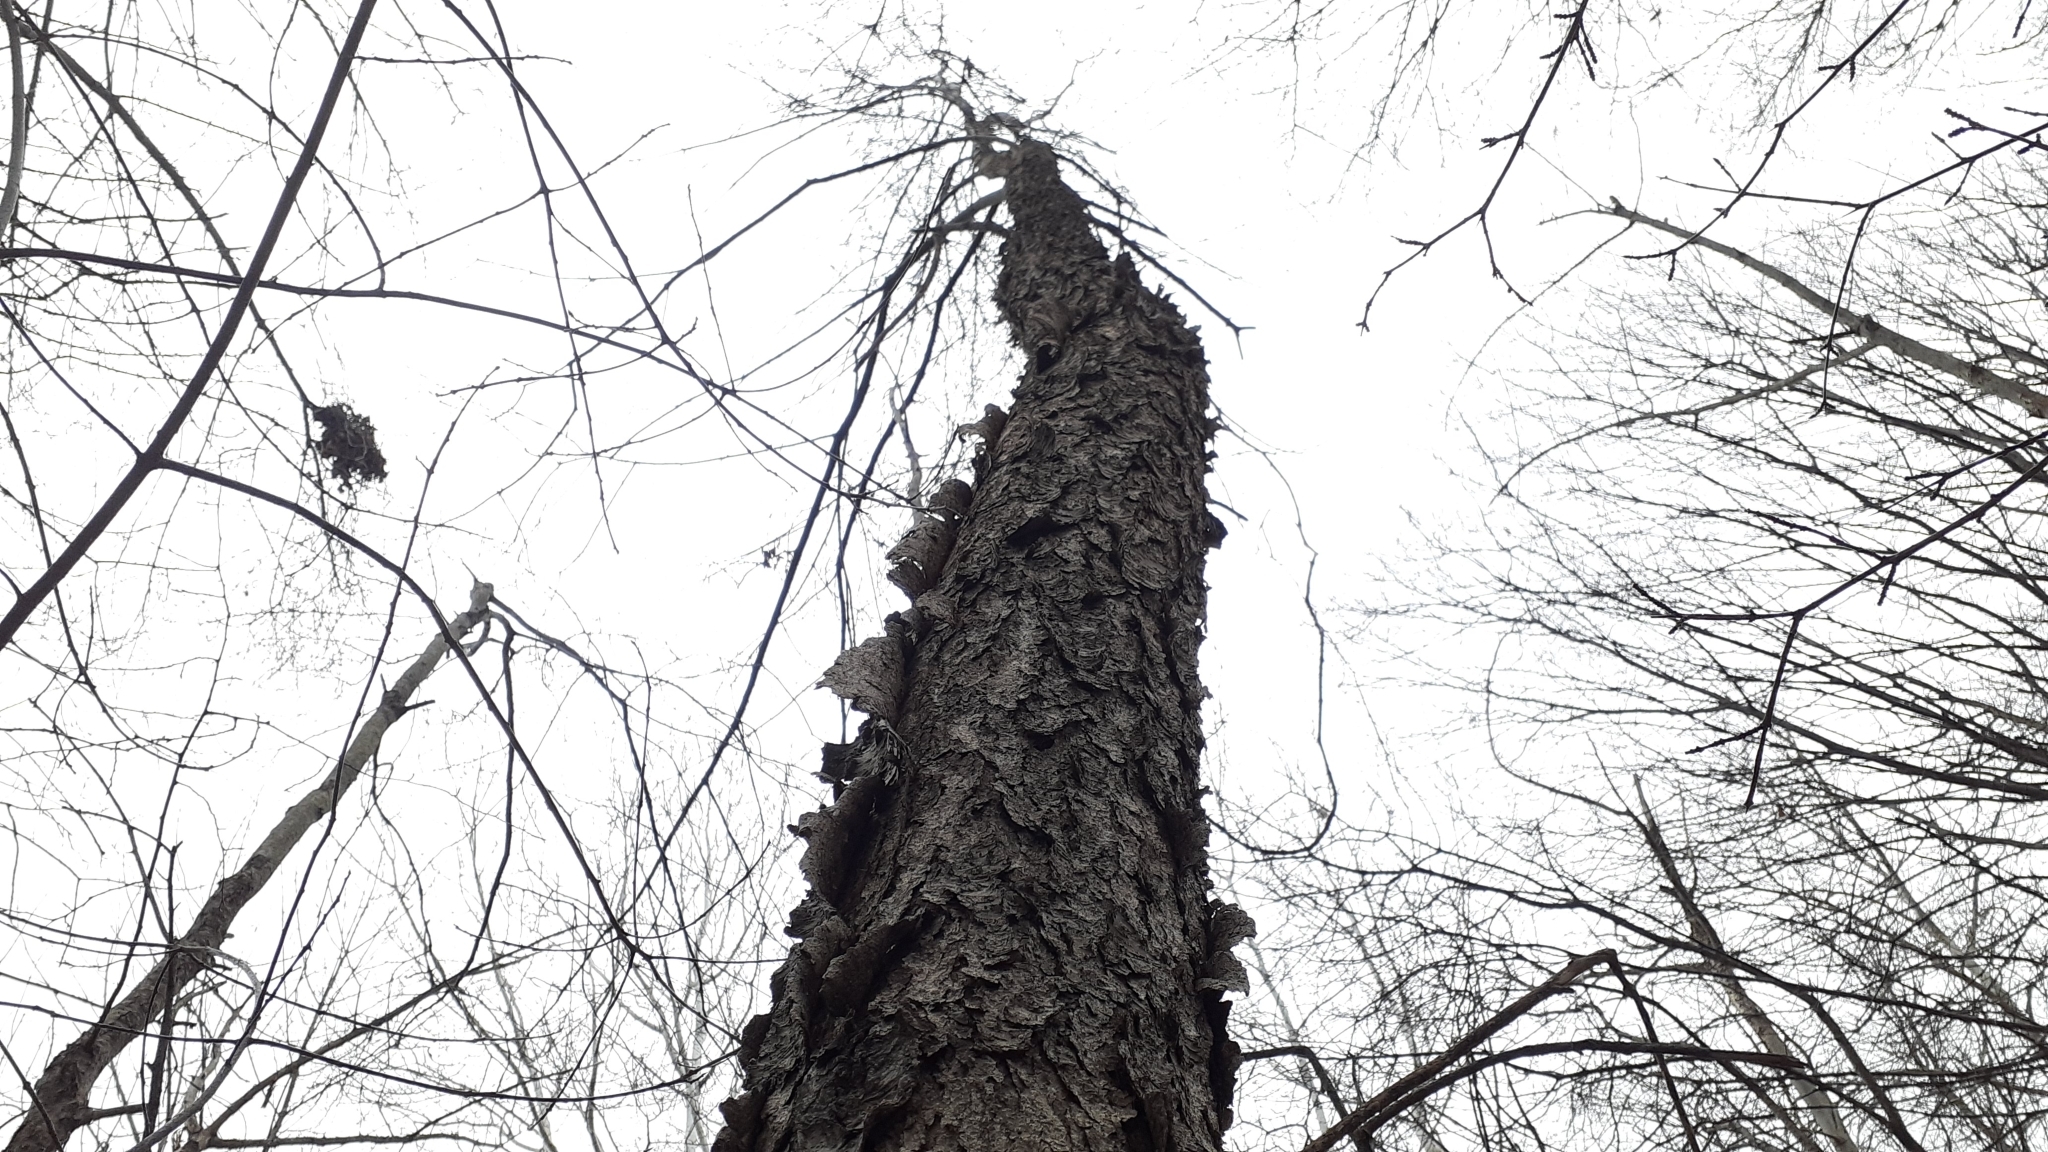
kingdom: Plantae
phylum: Tracheophyta
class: Magnoliopsida
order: Rosales
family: Rosaceae
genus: Prunus
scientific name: Prunus serotina
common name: Black cherry
